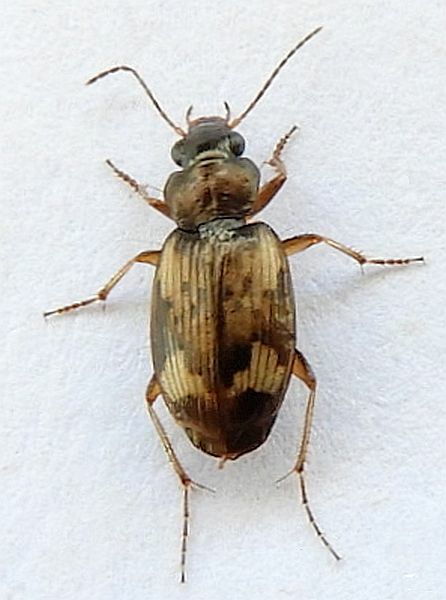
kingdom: Animalia
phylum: Arthropoda
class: Insecta
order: Coleoptera
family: Carabidae
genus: Tetragonoderus
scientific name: Tetragonoderus intersectus
